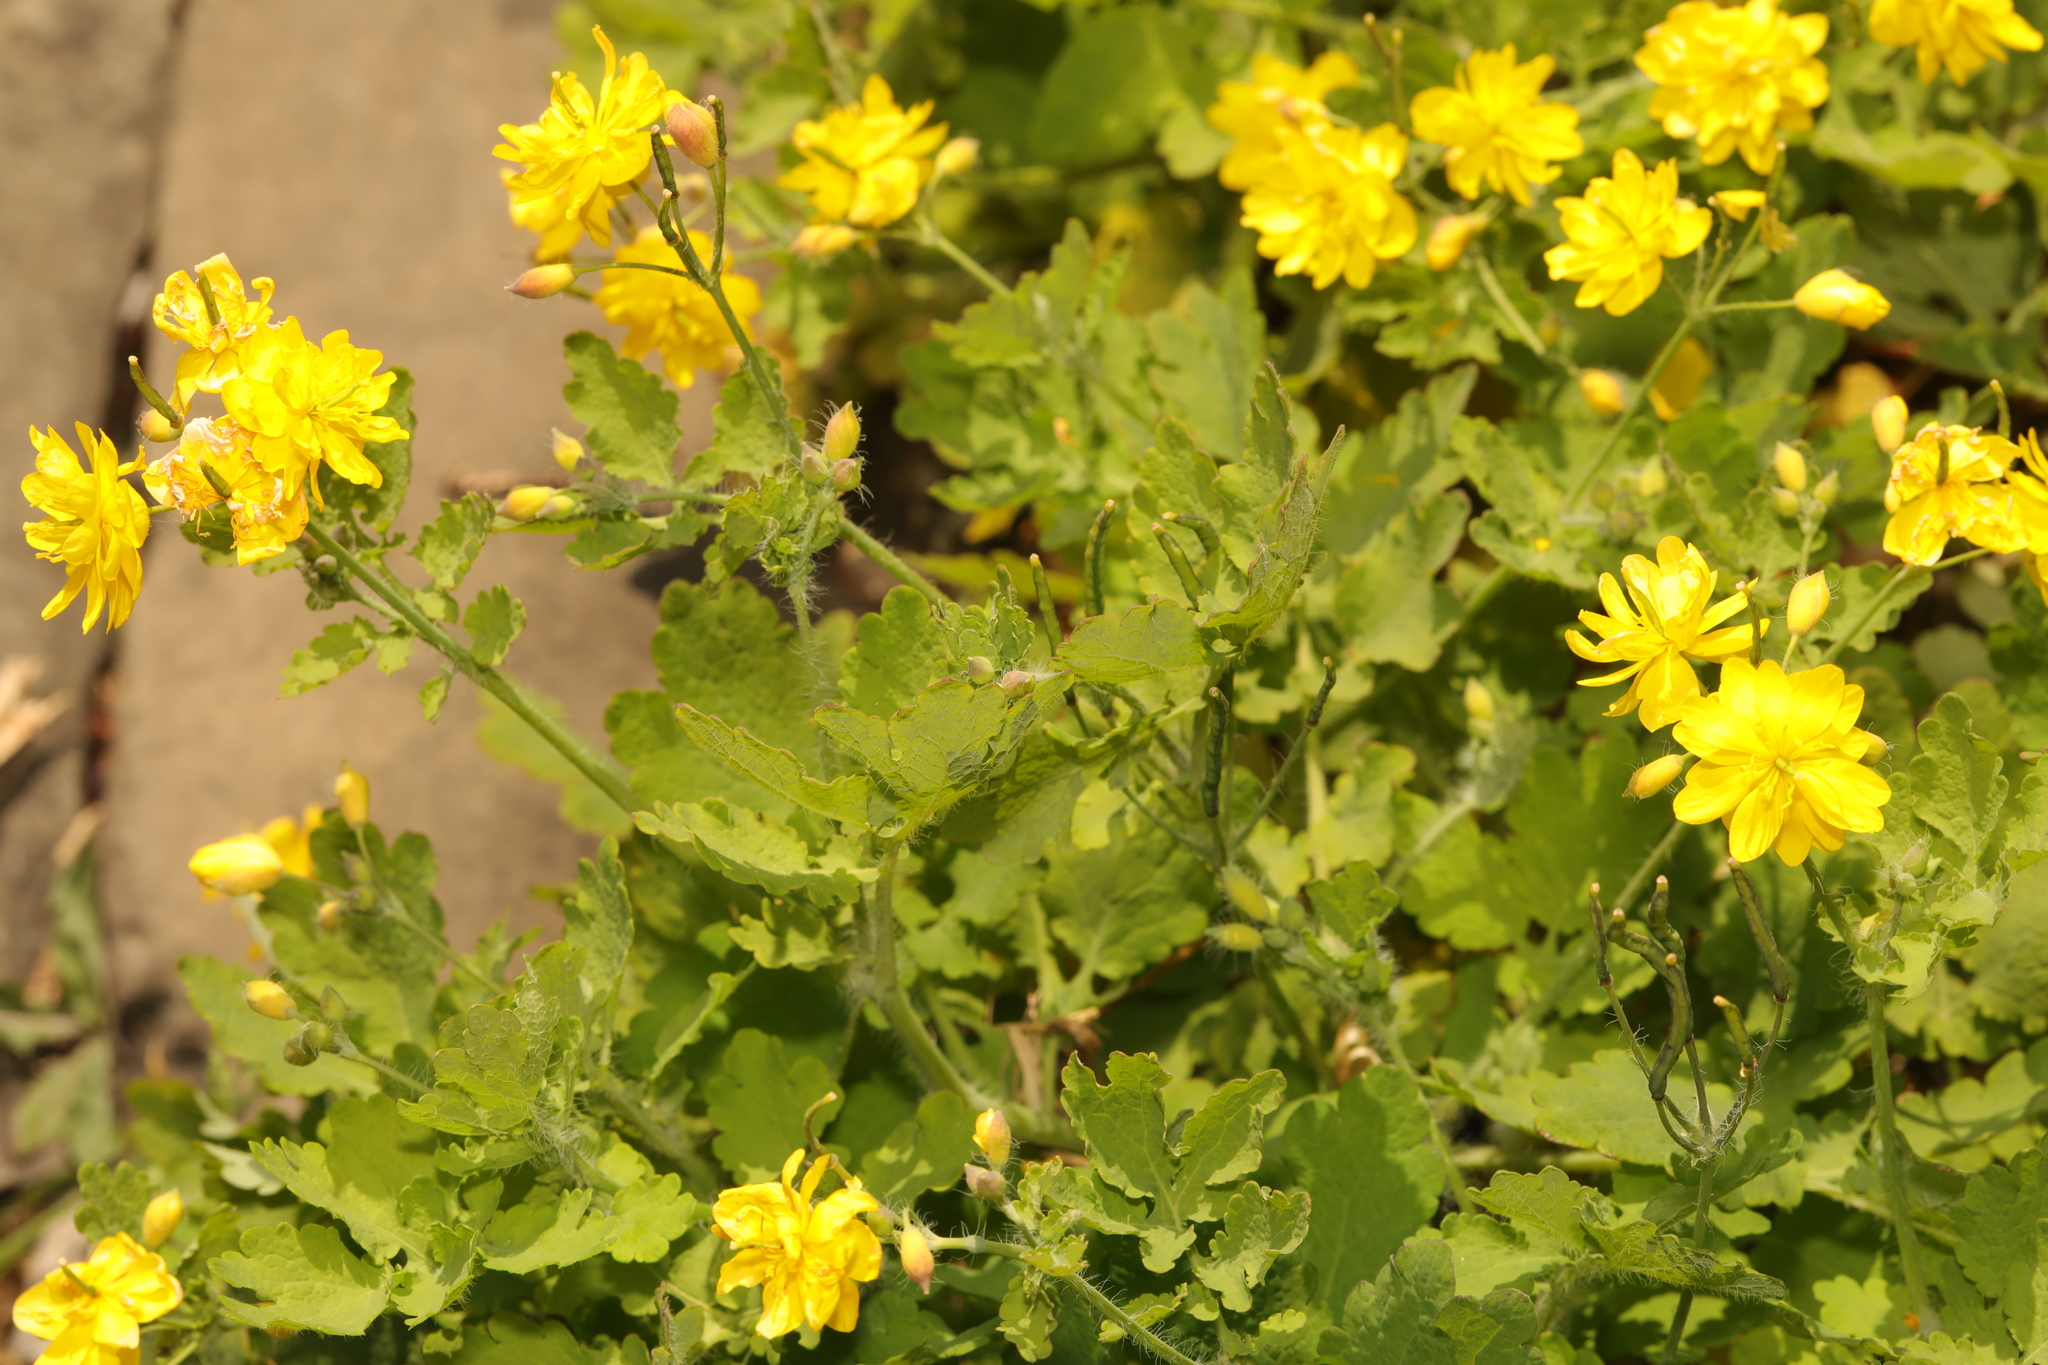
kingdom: Plantae
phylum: Tracheophyta
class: Magnoliopsida
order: Ranunculales
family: Papaveraceae
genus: Chelidonium
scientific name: Chelidonium majus
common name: Greater celandine
